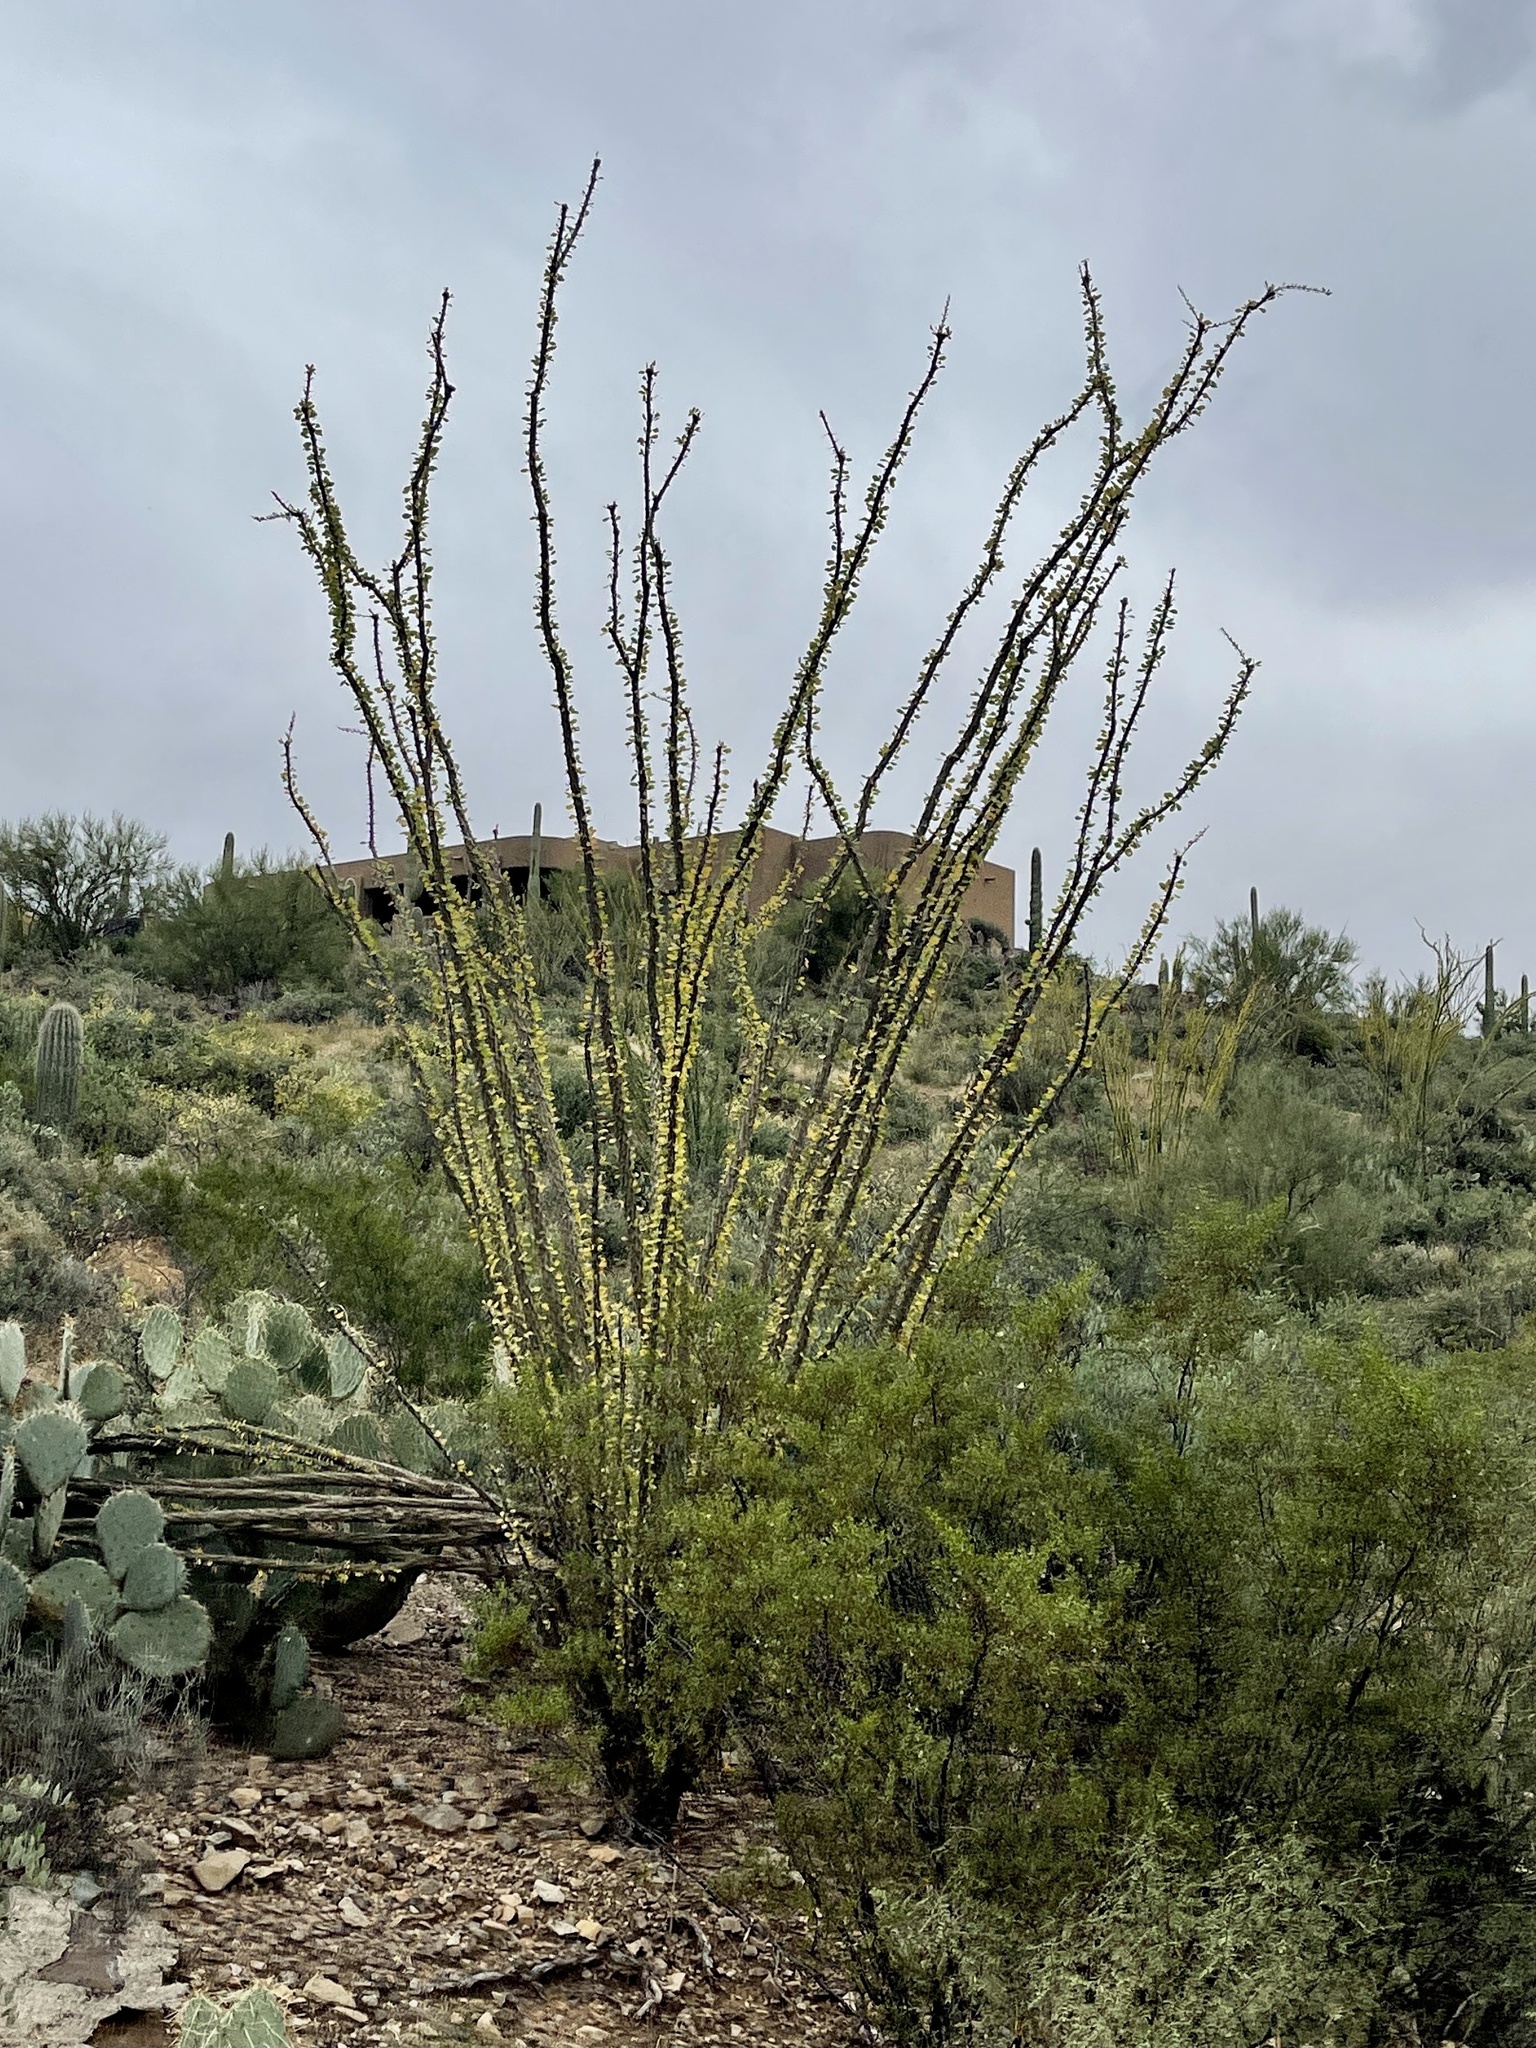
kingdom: Plantae
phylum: Tracheophyta
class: Magnoliopsida
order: Ericales
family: Fouquieriaceae
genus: Fouquieria
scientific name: Fouquieria splendens
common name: Vine-cactus
